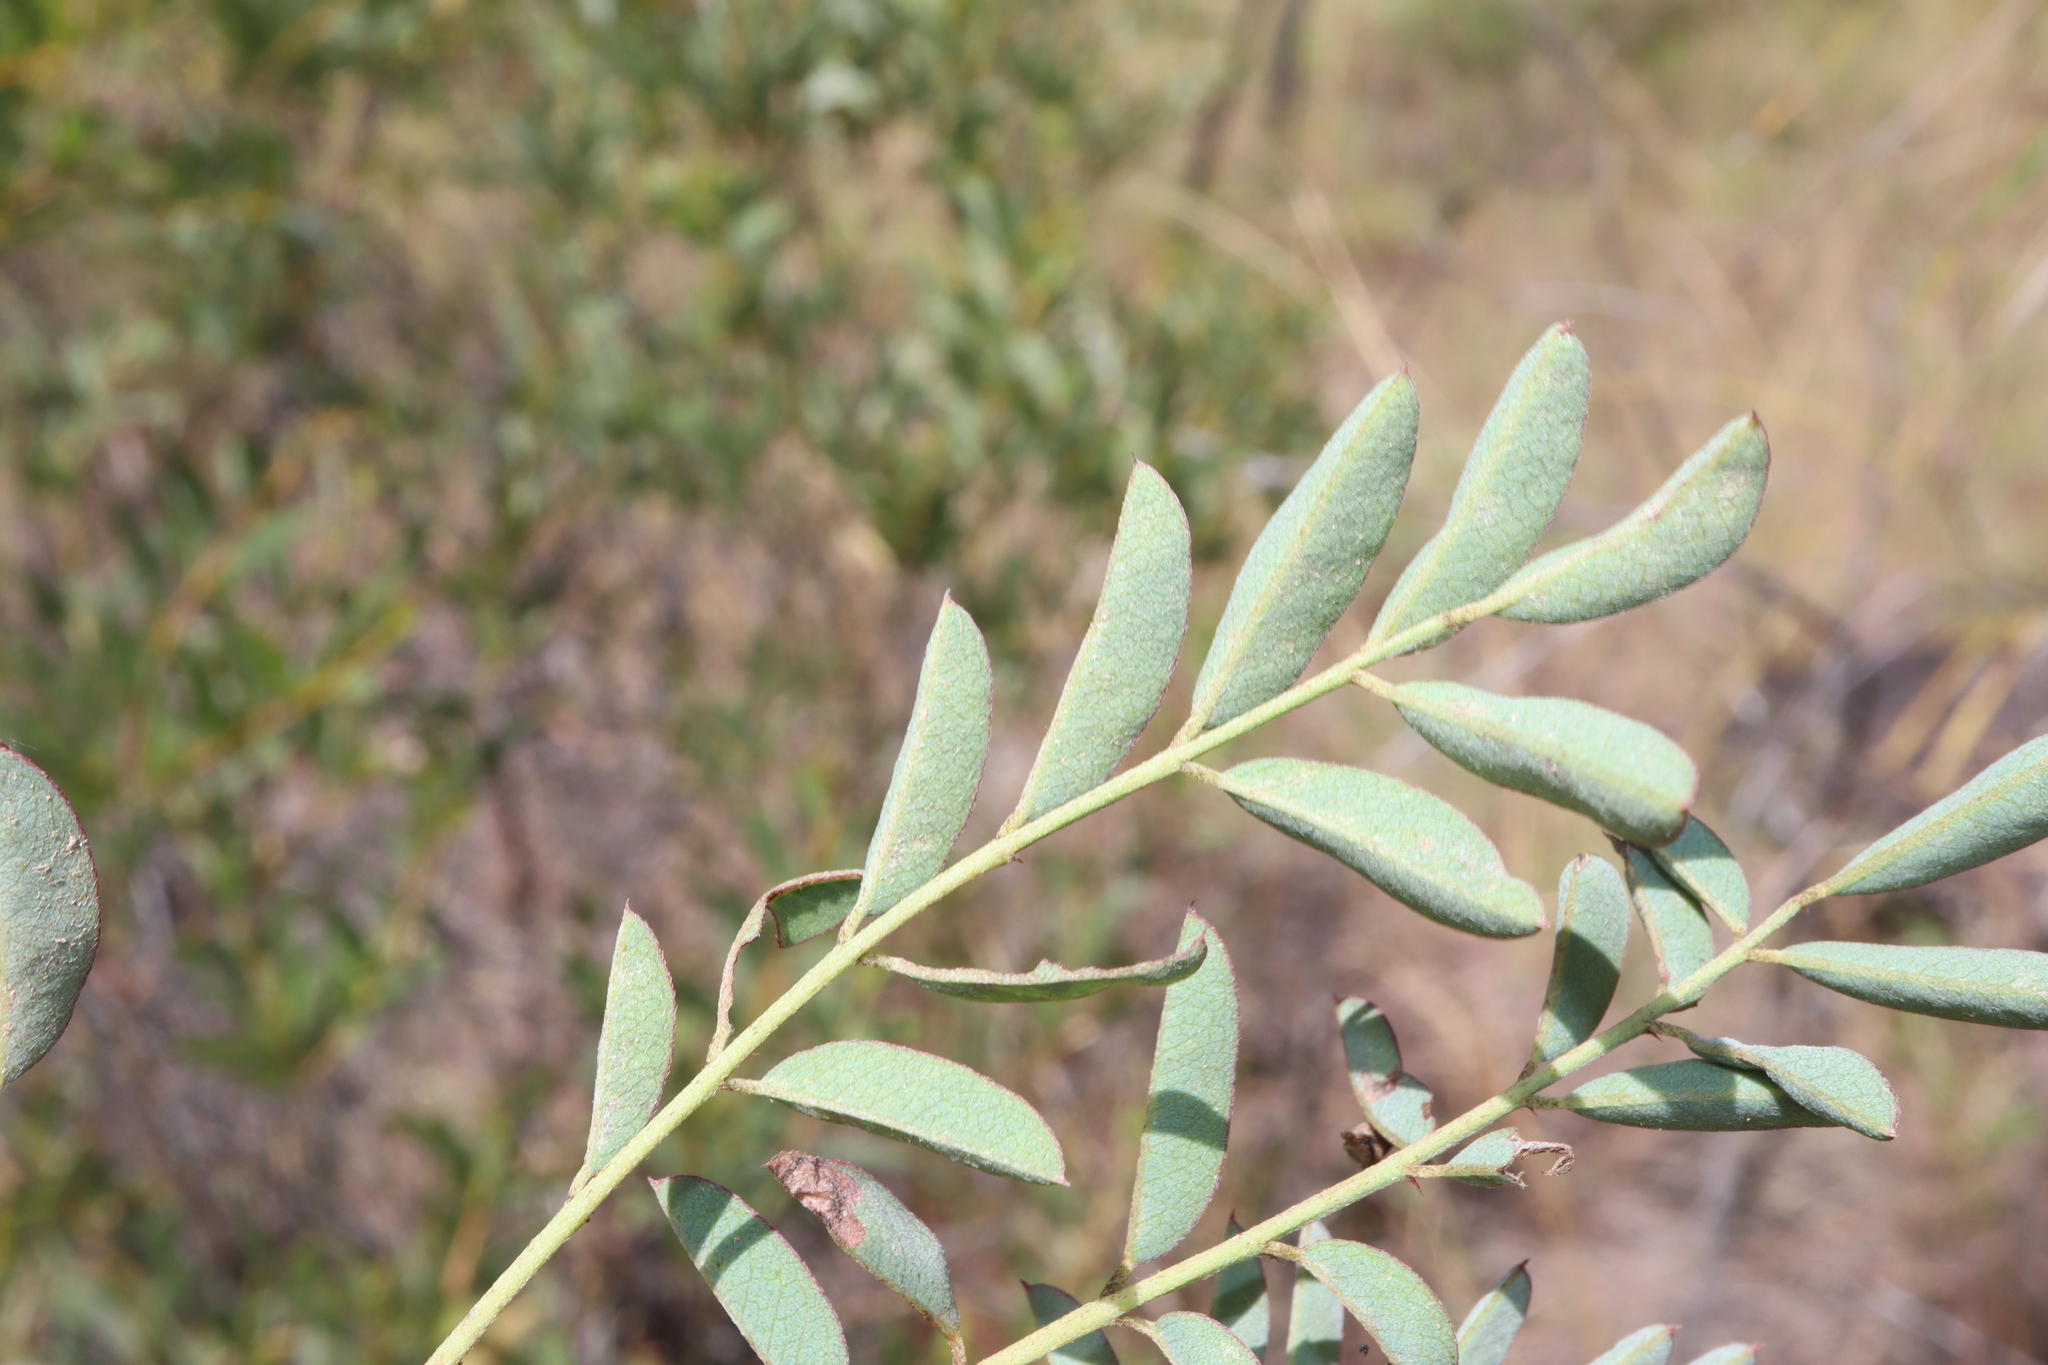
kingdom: Plantae
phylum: Tracheophyta
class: Magnoliopsida
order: Fabales
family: Fabaceae
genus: Indigofera
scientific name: Indigofera pratensis
